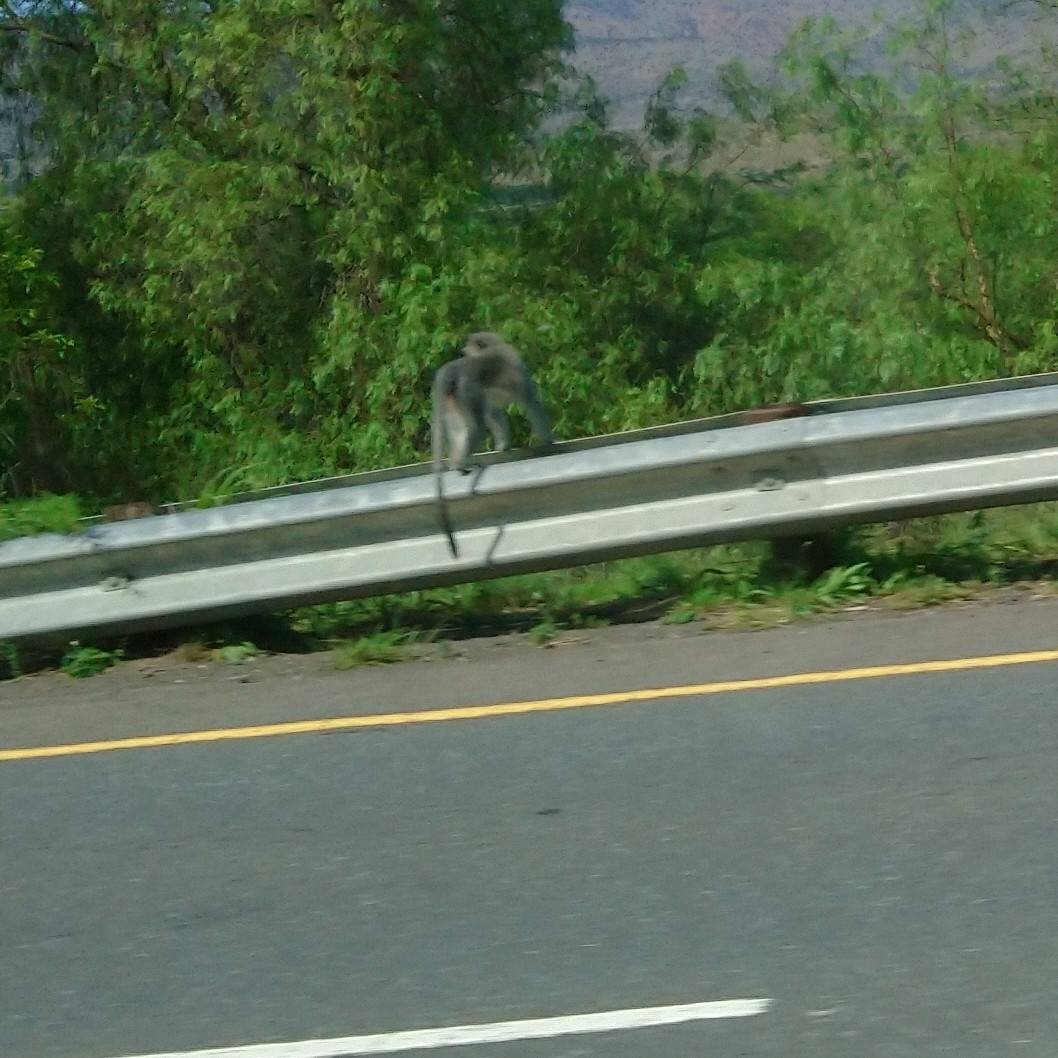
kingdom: Animalia
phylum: Chordata
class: Mammalia
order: Primates
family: Cercopithecidae
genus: Chlorocebus
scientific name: Chlorocebus pygerythrus
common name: Vervet monkey
